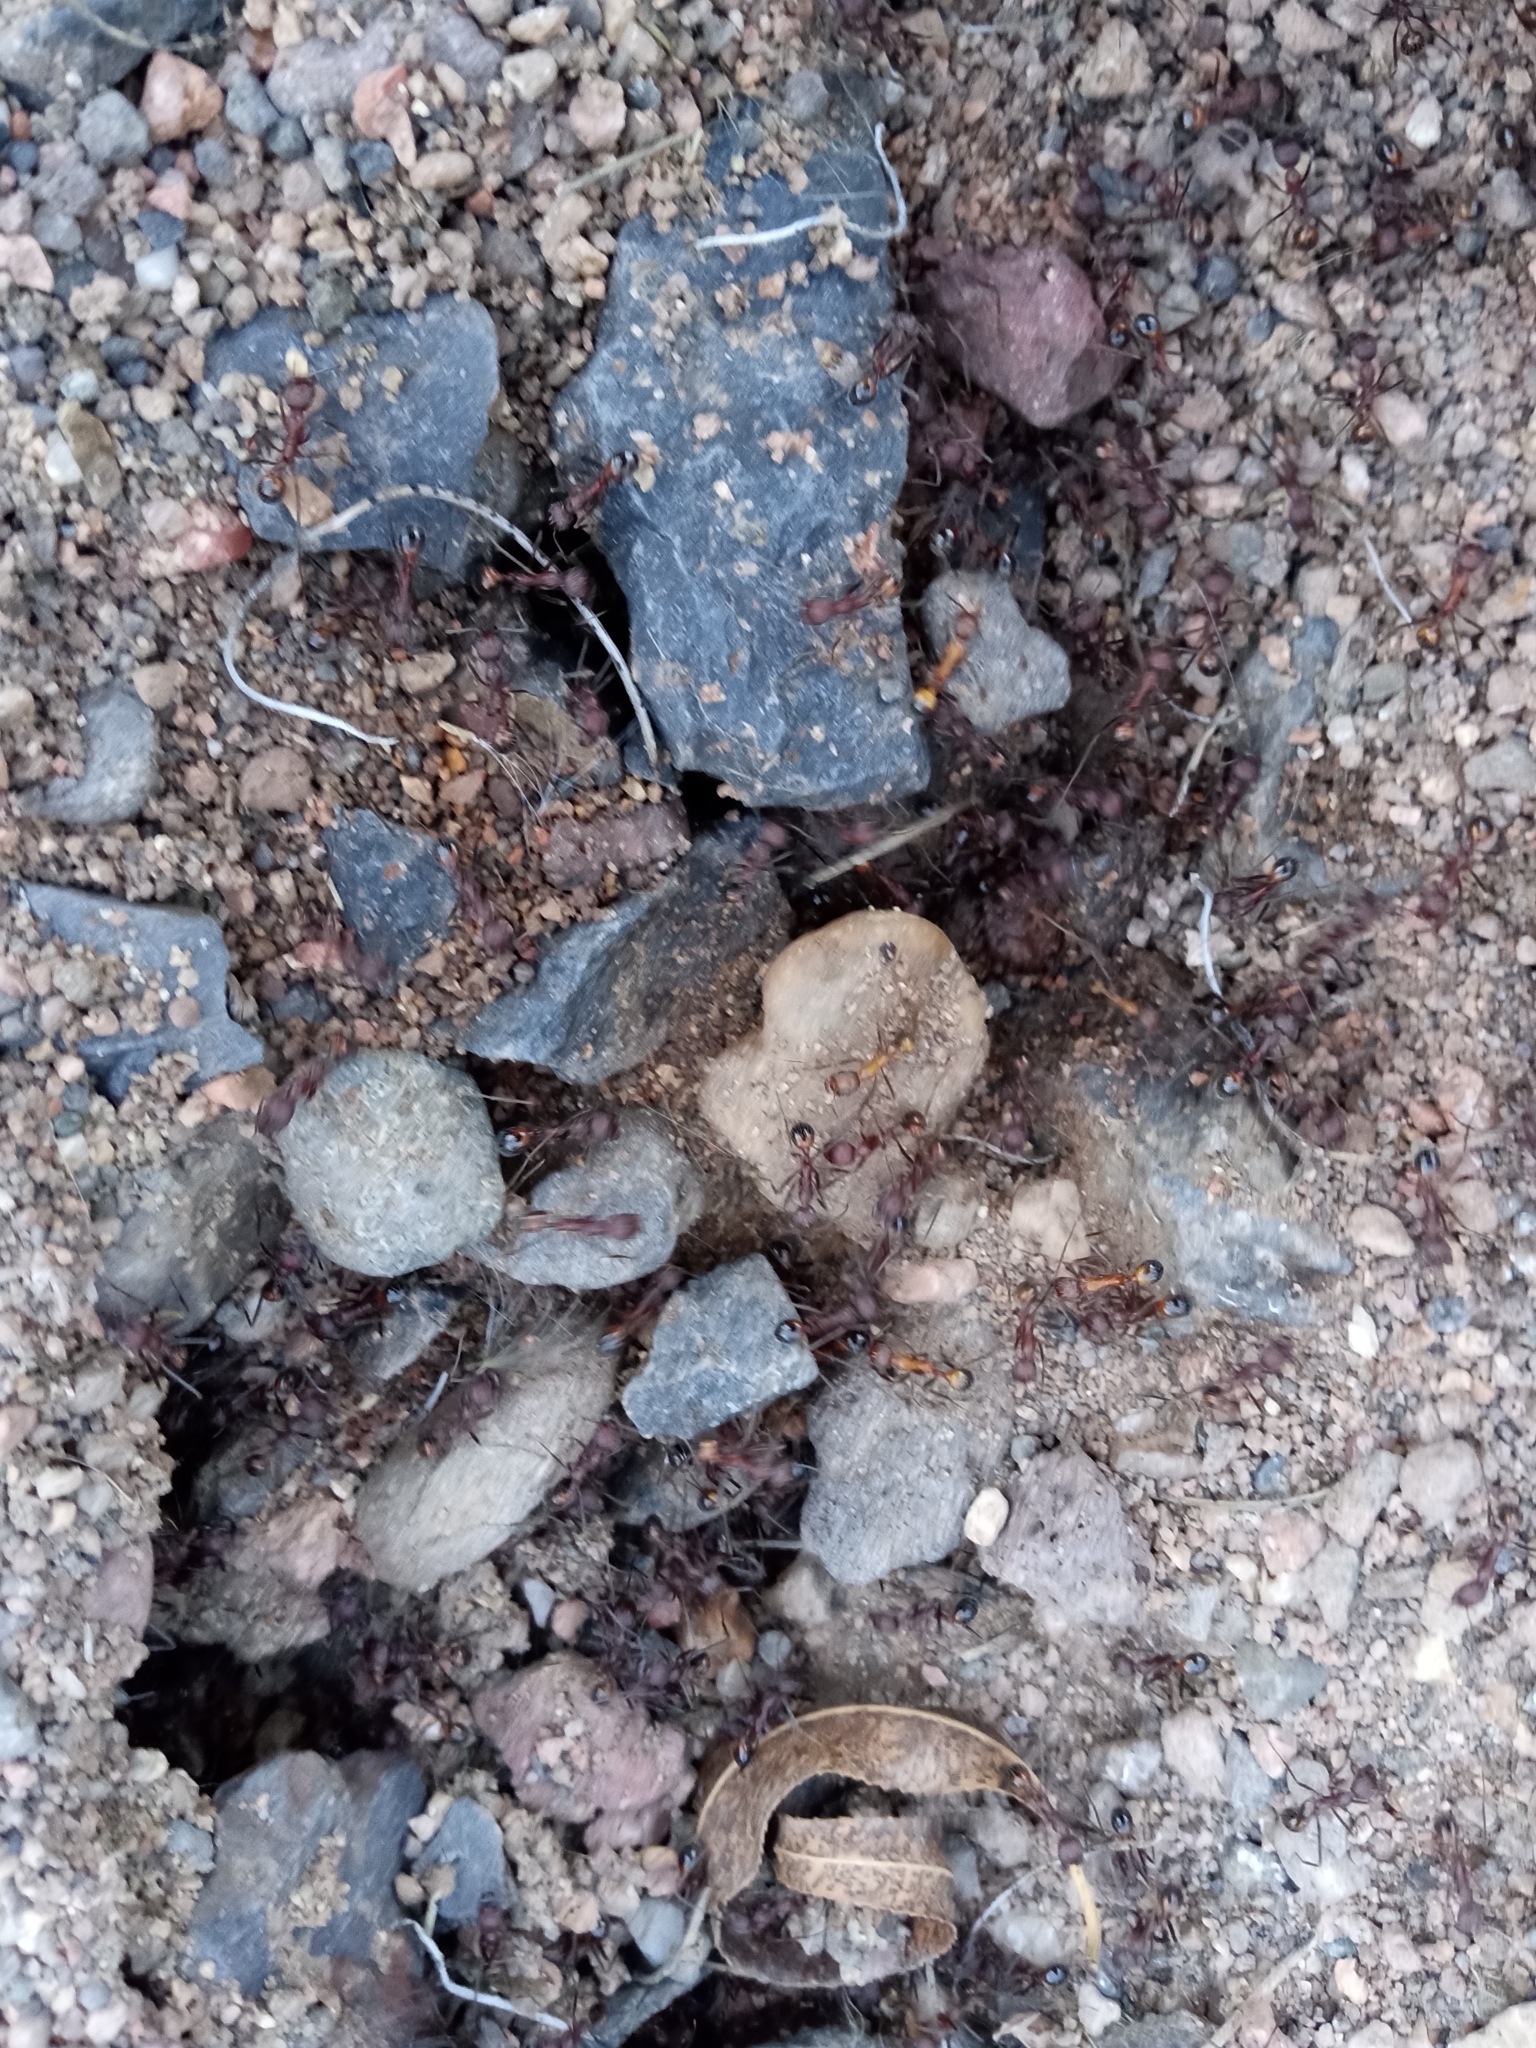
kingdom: Animalia
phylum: Arthropoda
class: Insecta
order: Hymenoptera
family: Formicidae
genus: Novomessor
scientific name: Novomessor albisetosa
